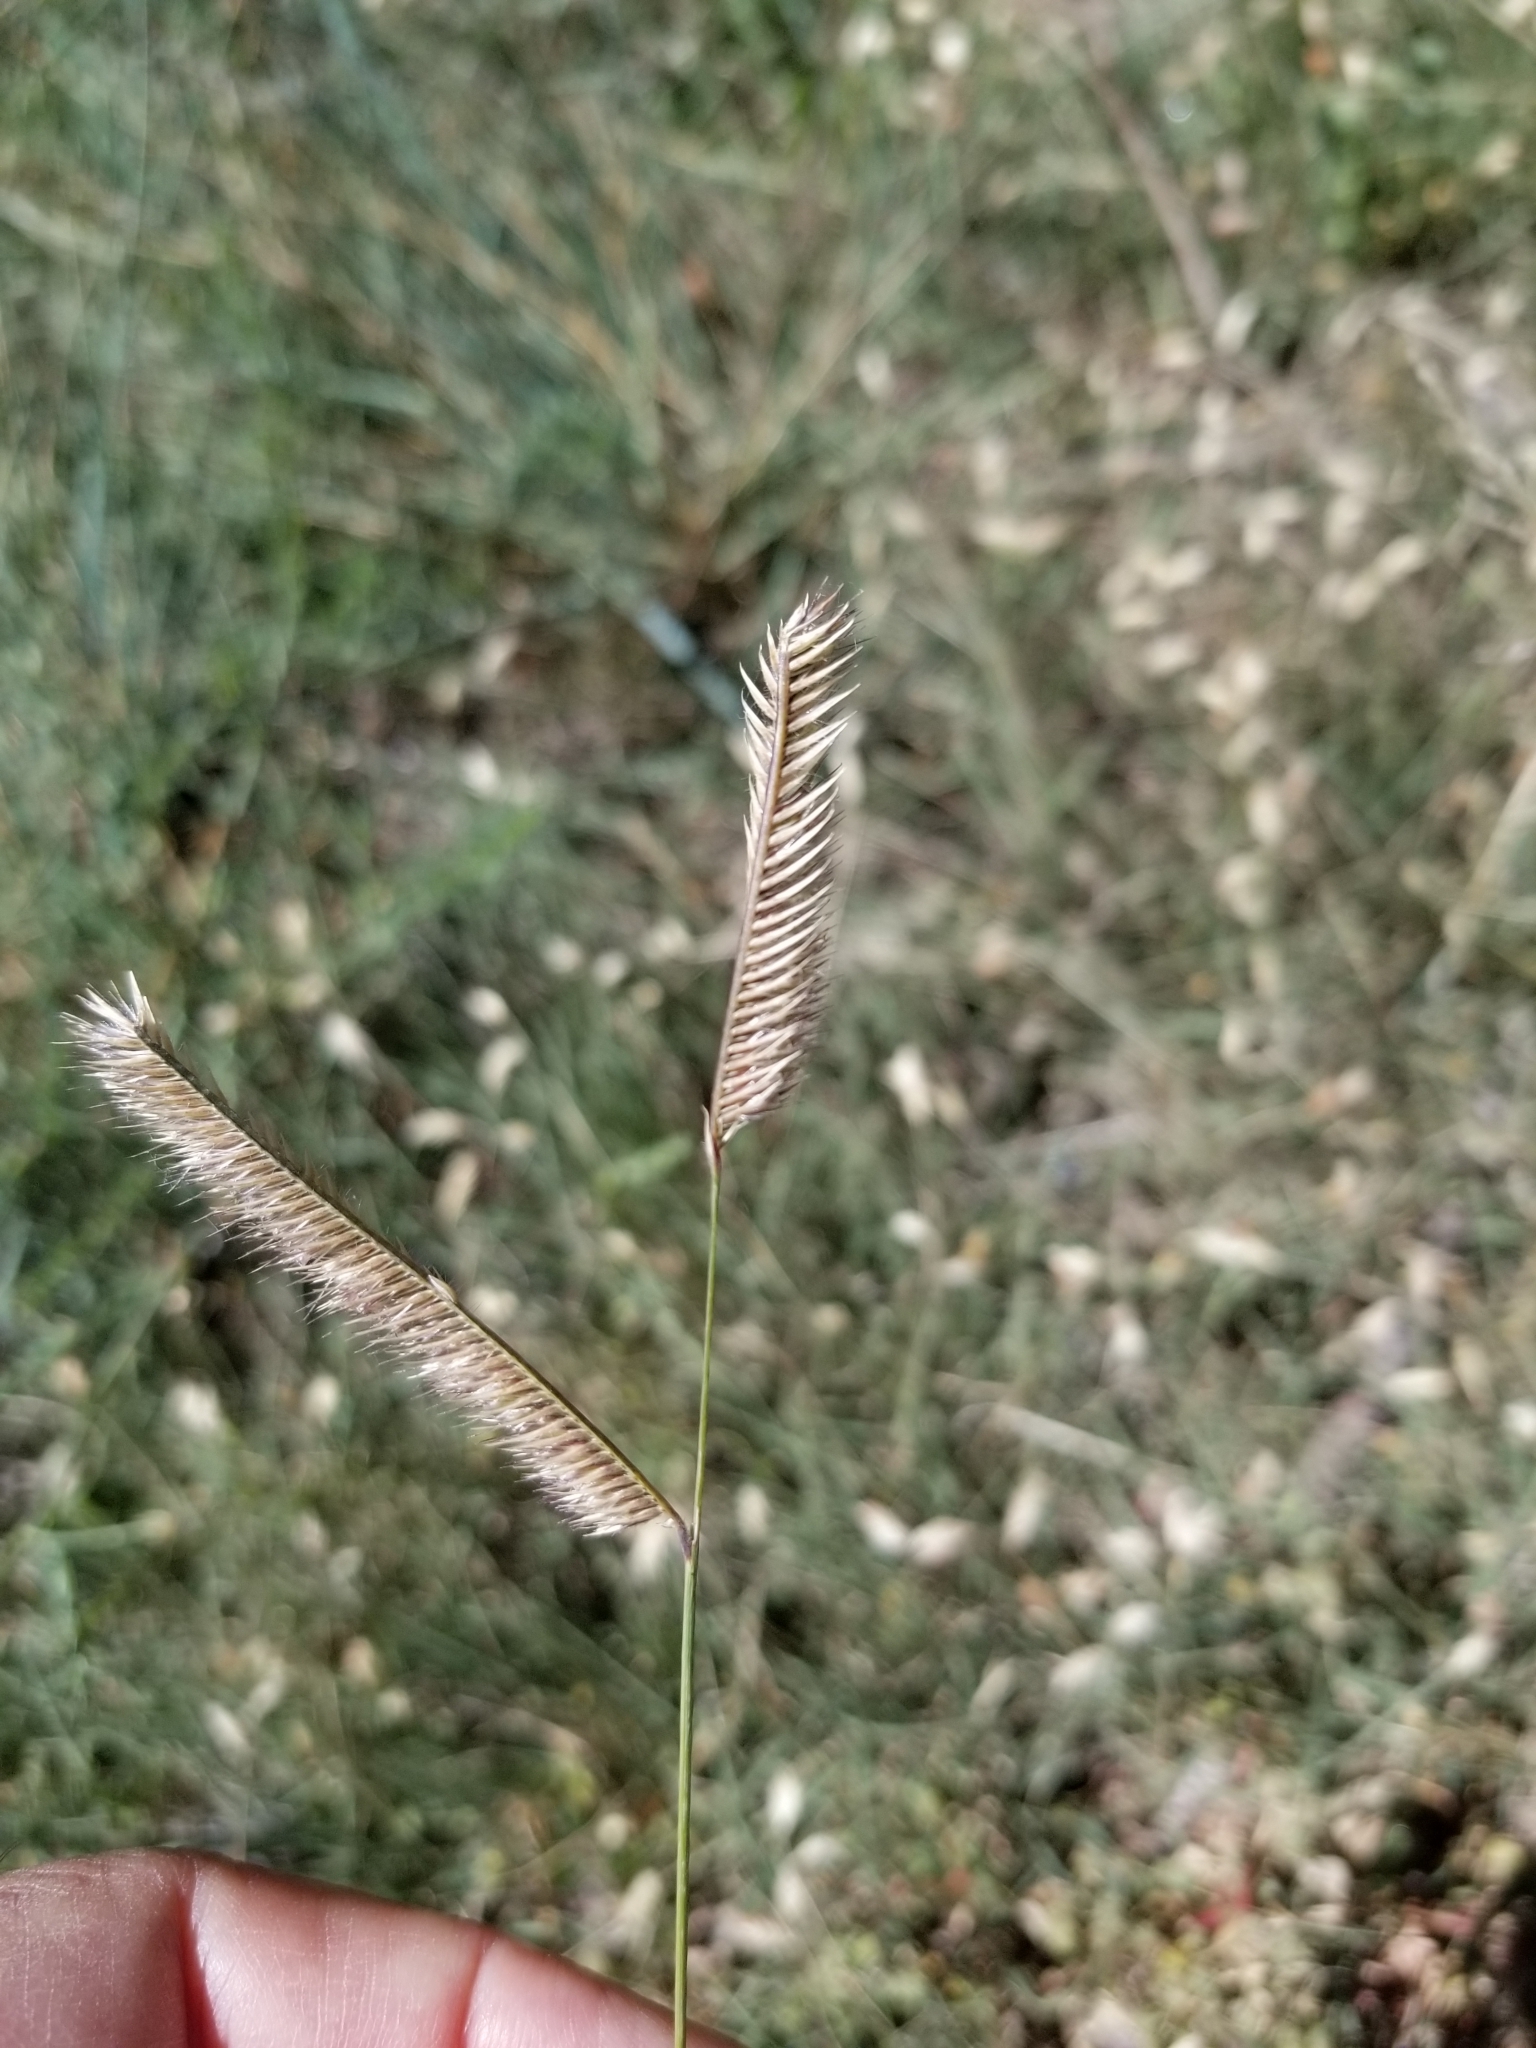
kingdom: Plantae
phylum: Tracheophyta
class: Liliopsida
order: Poales
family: Poaceae
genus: Bouteloua
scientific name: Bouteloua gracilis
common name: Blue grama
